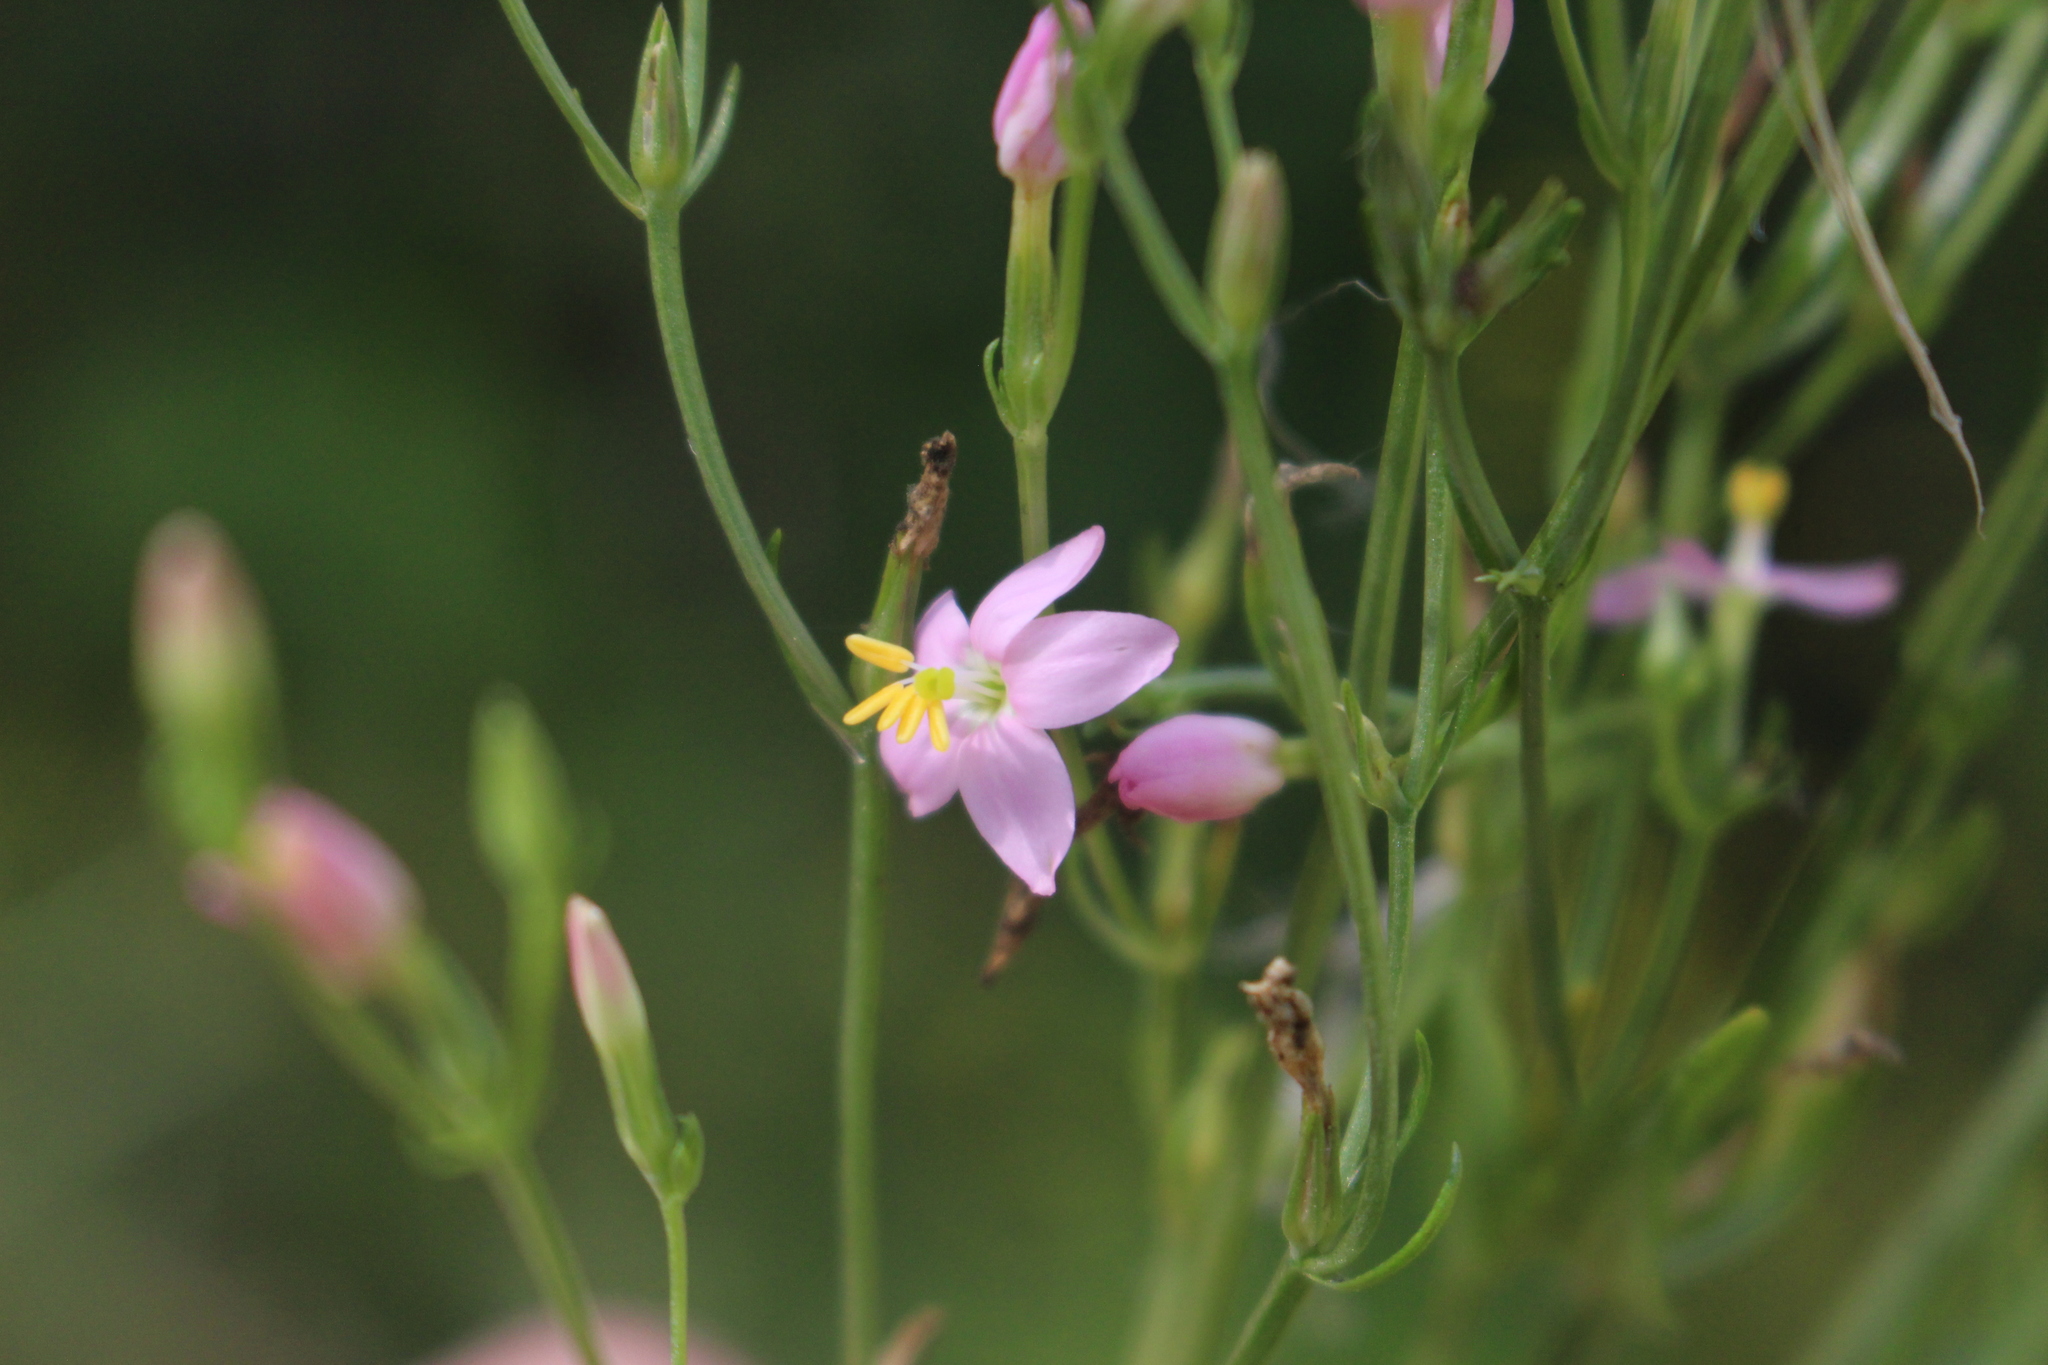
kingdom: Plantae
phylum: Tracheophyta
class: Magnoliopsida
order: Gentianales
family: Gentianaceae
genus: Centaurium
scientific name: Centaurium erythraea
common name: Common centaury
